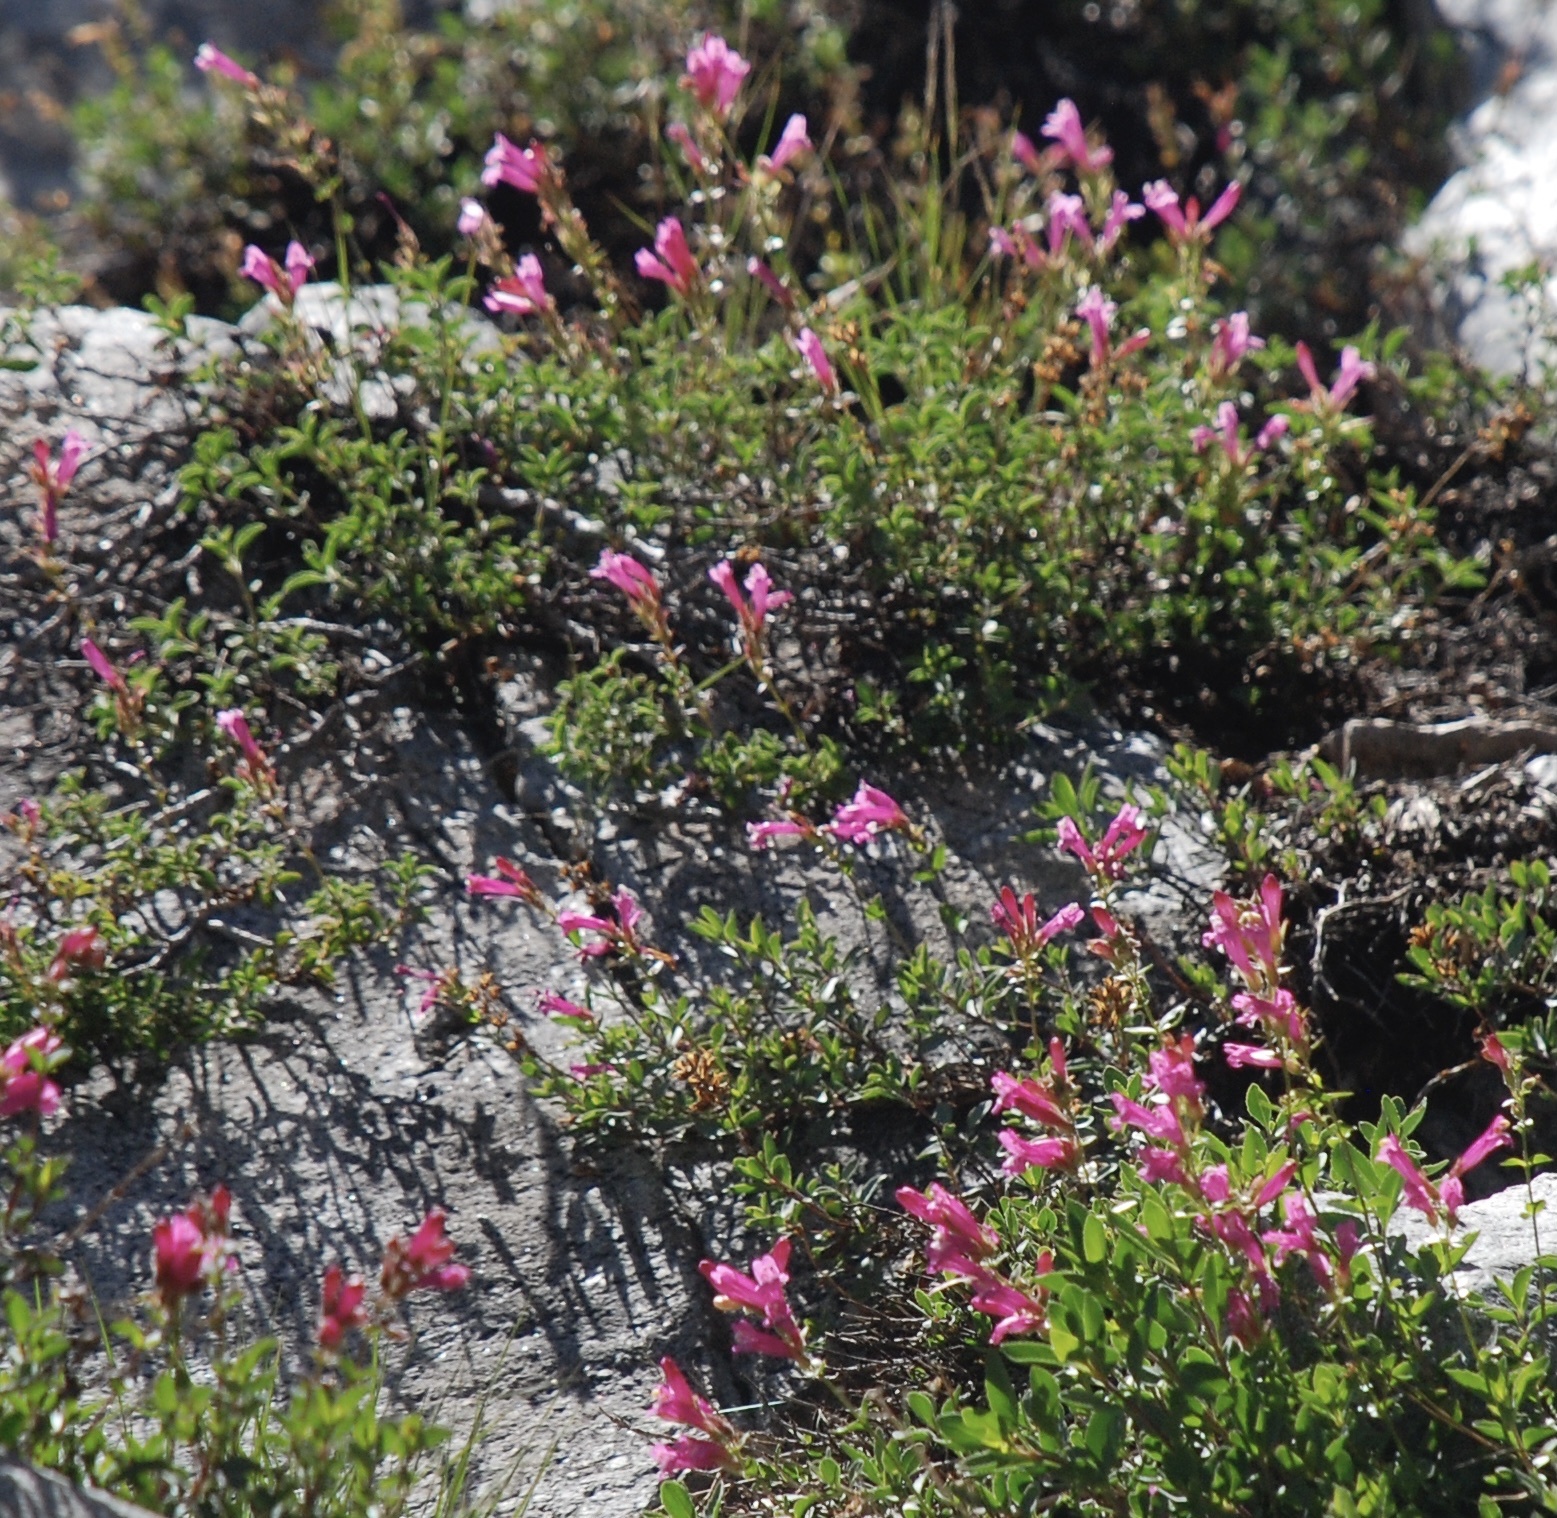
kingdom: Plantae
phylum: Tracheophyta
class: Magnoliopsida
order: Lamiales
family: Plantaginaceae
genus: Penstemon
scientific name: Penstemon newberryi
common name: Mountain-pride
